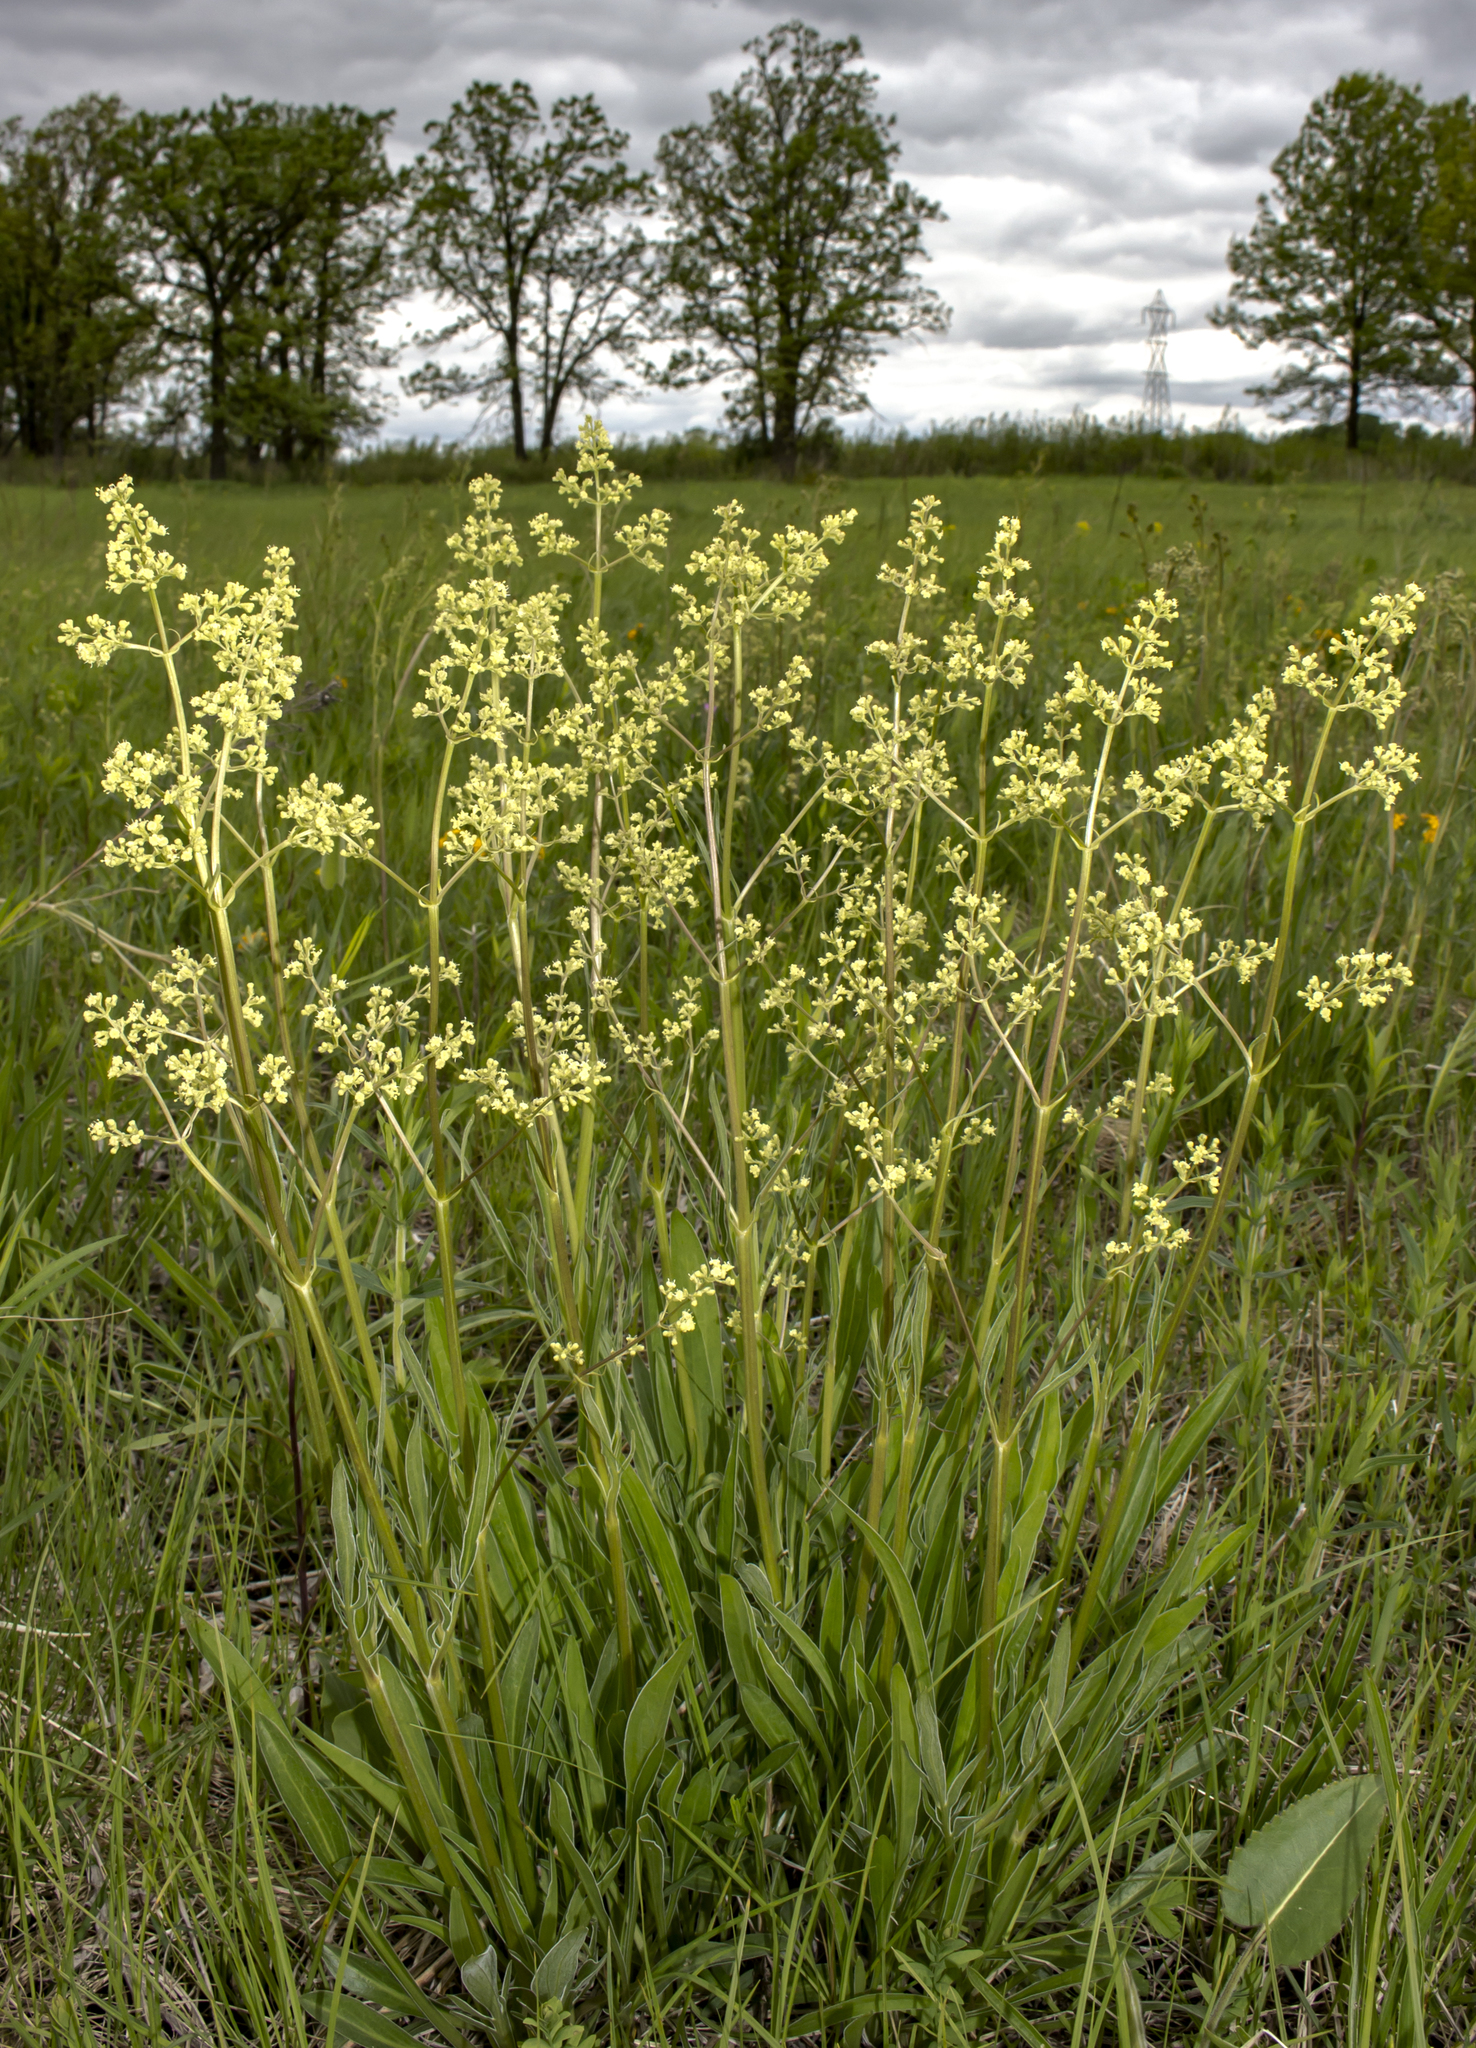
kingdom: Plantae
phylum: Tracheophyta
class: Magnoliopsida
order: Dipsacales
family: Caprifoliaceae
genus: Valeriana
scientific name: Valeriana edulis
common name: Taproot valerian
